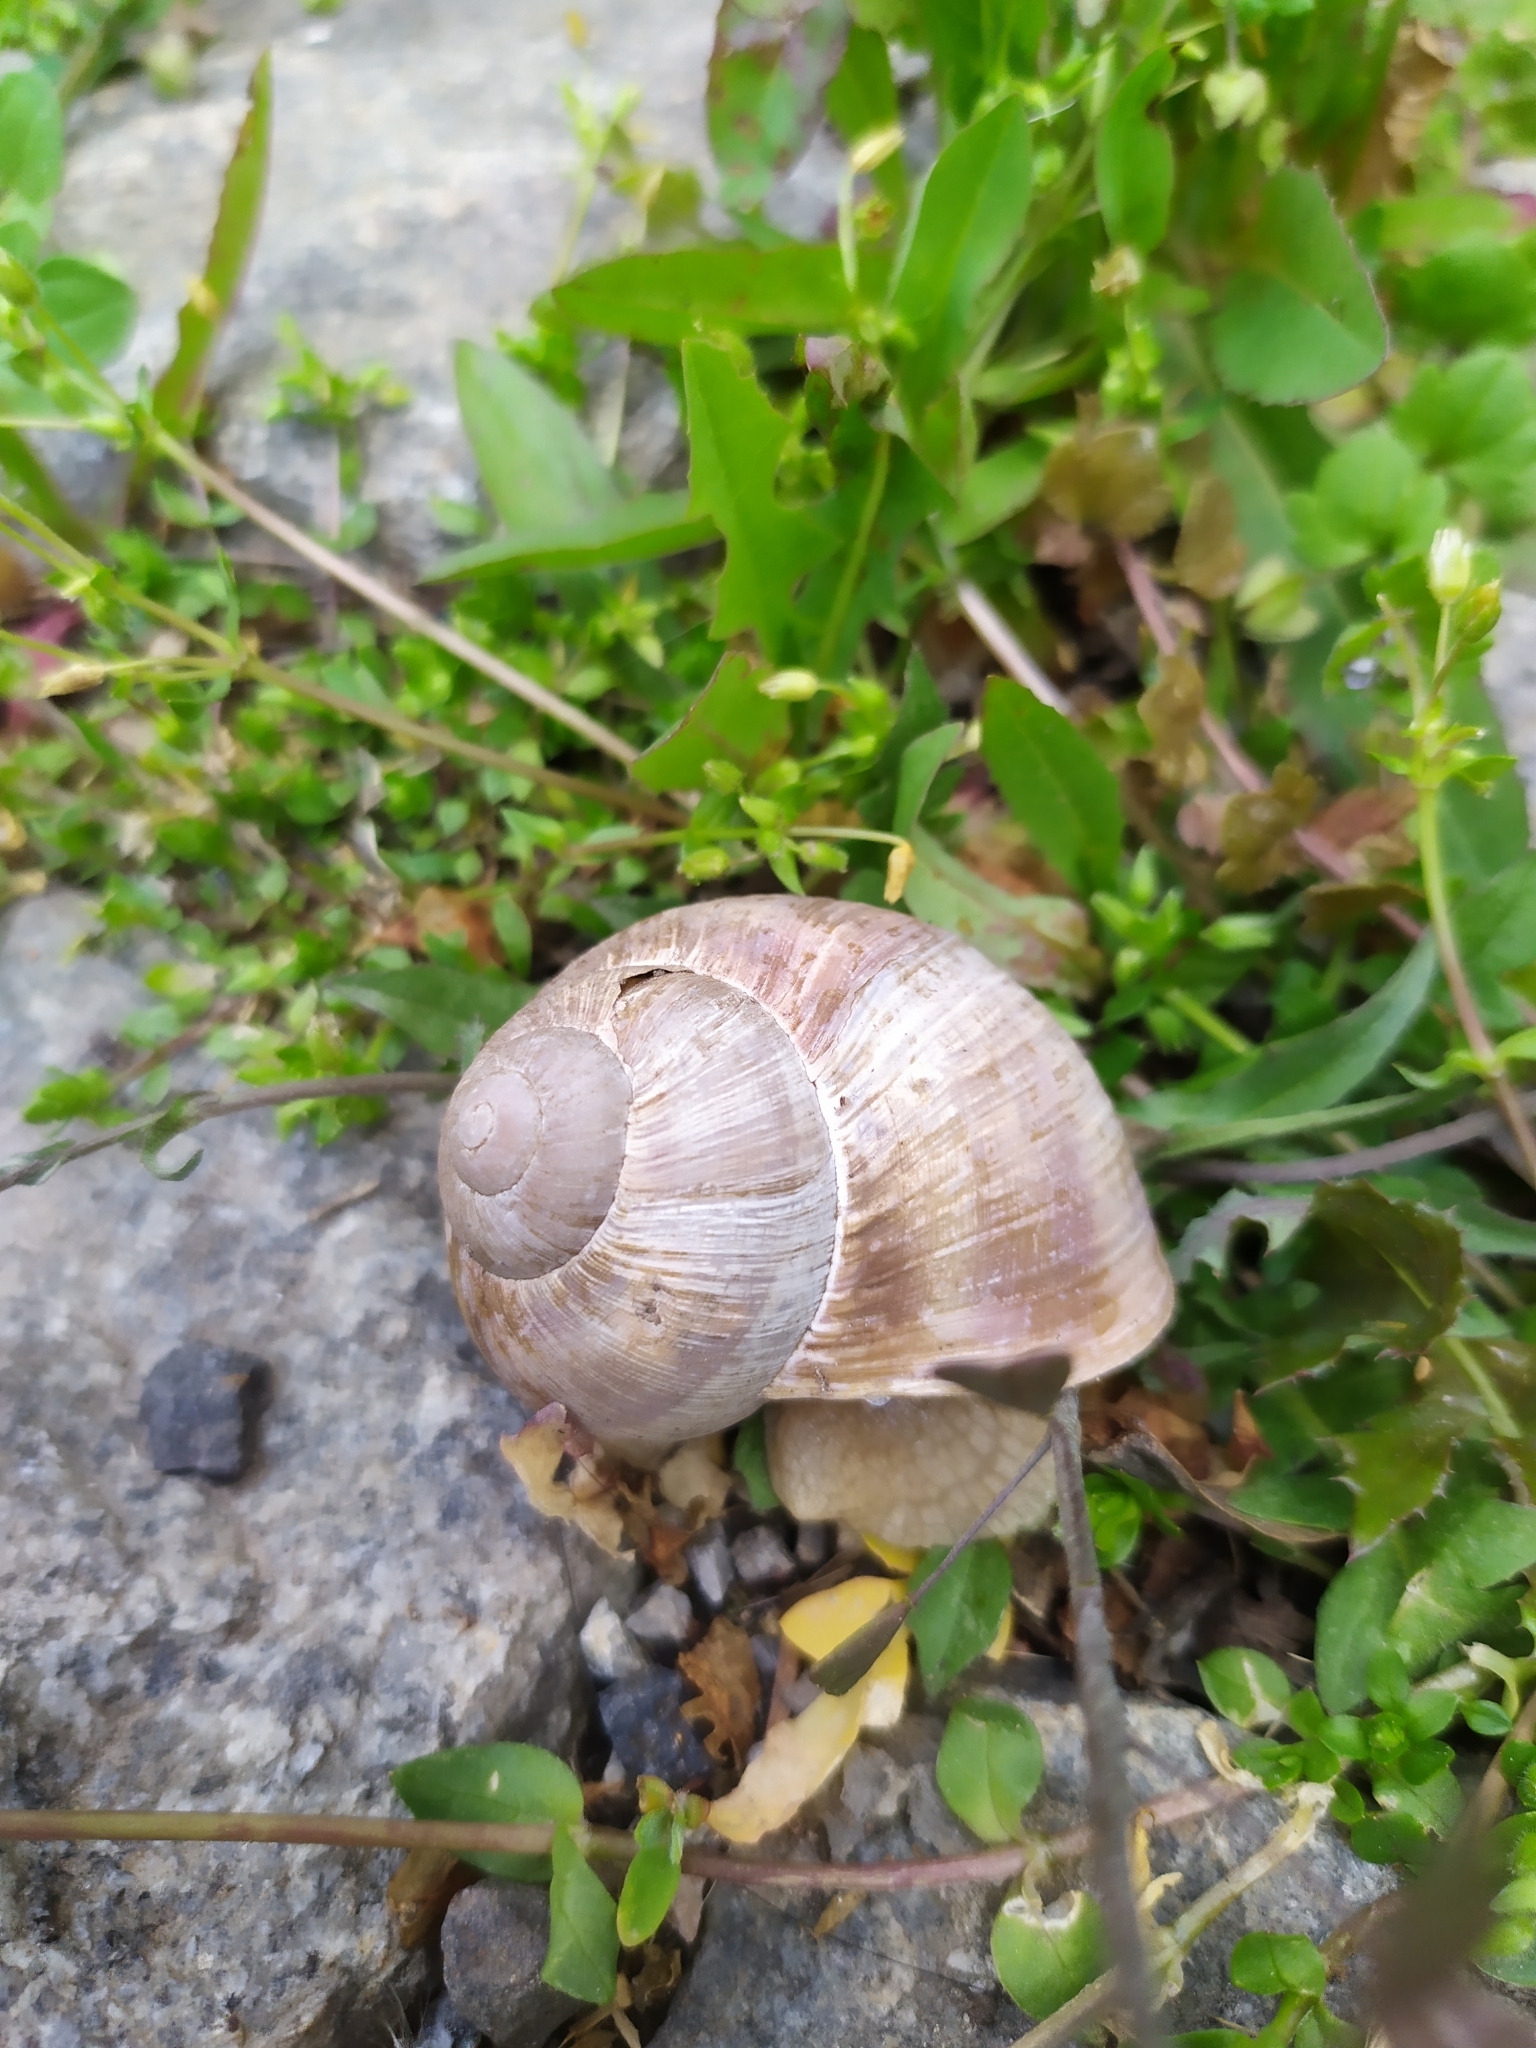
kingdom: Animalia
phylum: Mollusca
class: Gastropoda
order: Stylommatophora
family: Helicidae
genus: Helix
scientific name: Helix pomatia
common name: Roman snail
